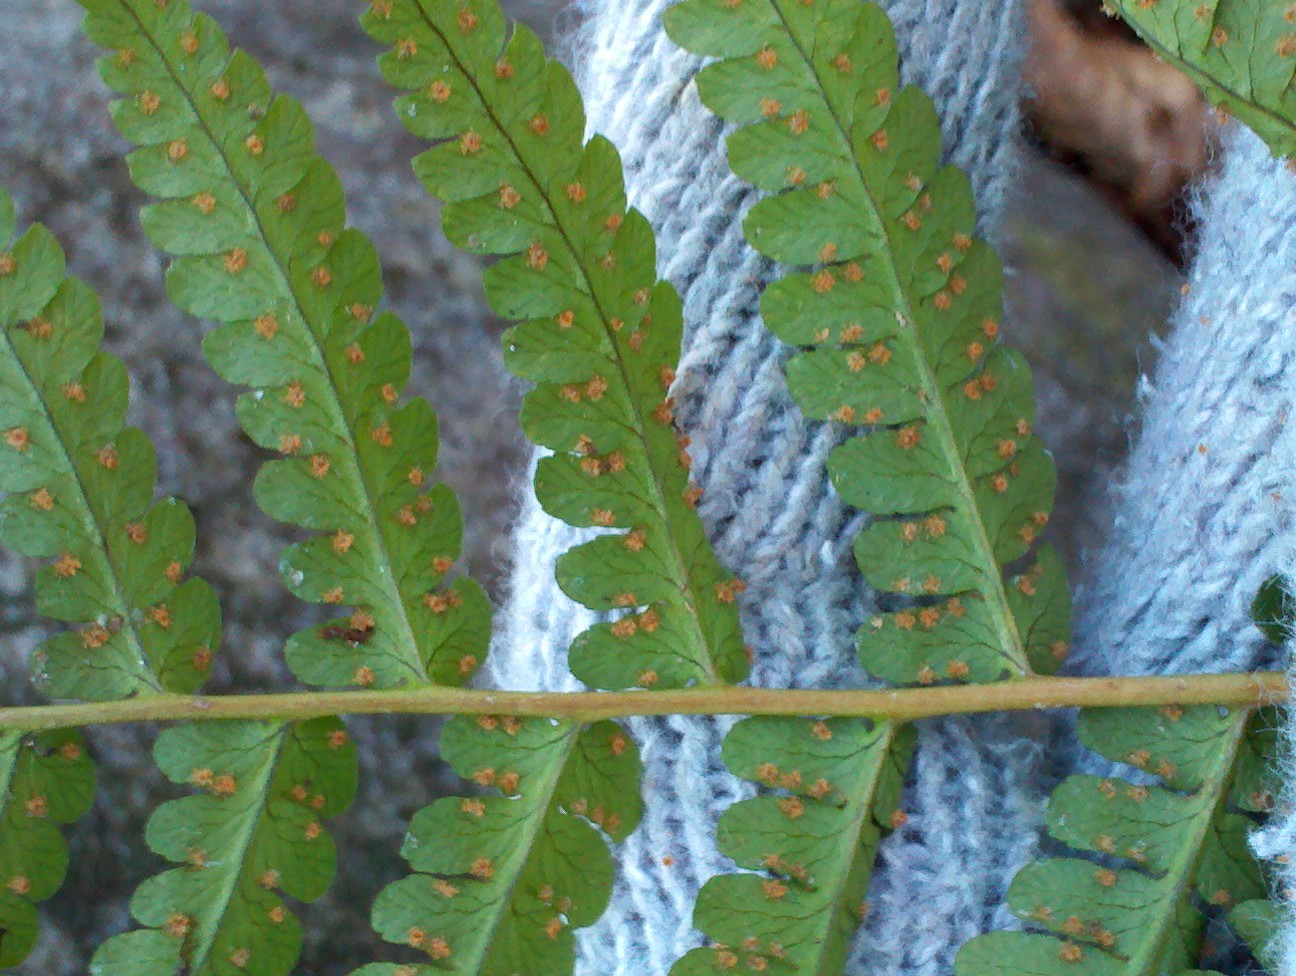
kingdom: Plantae
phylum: Tracheophyta
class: Polypodiopsida
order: Polypodiales
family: Dryopteridaceae
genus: Dryopteris
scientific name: Dryopteris marginalis
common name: Marginal wood fern
